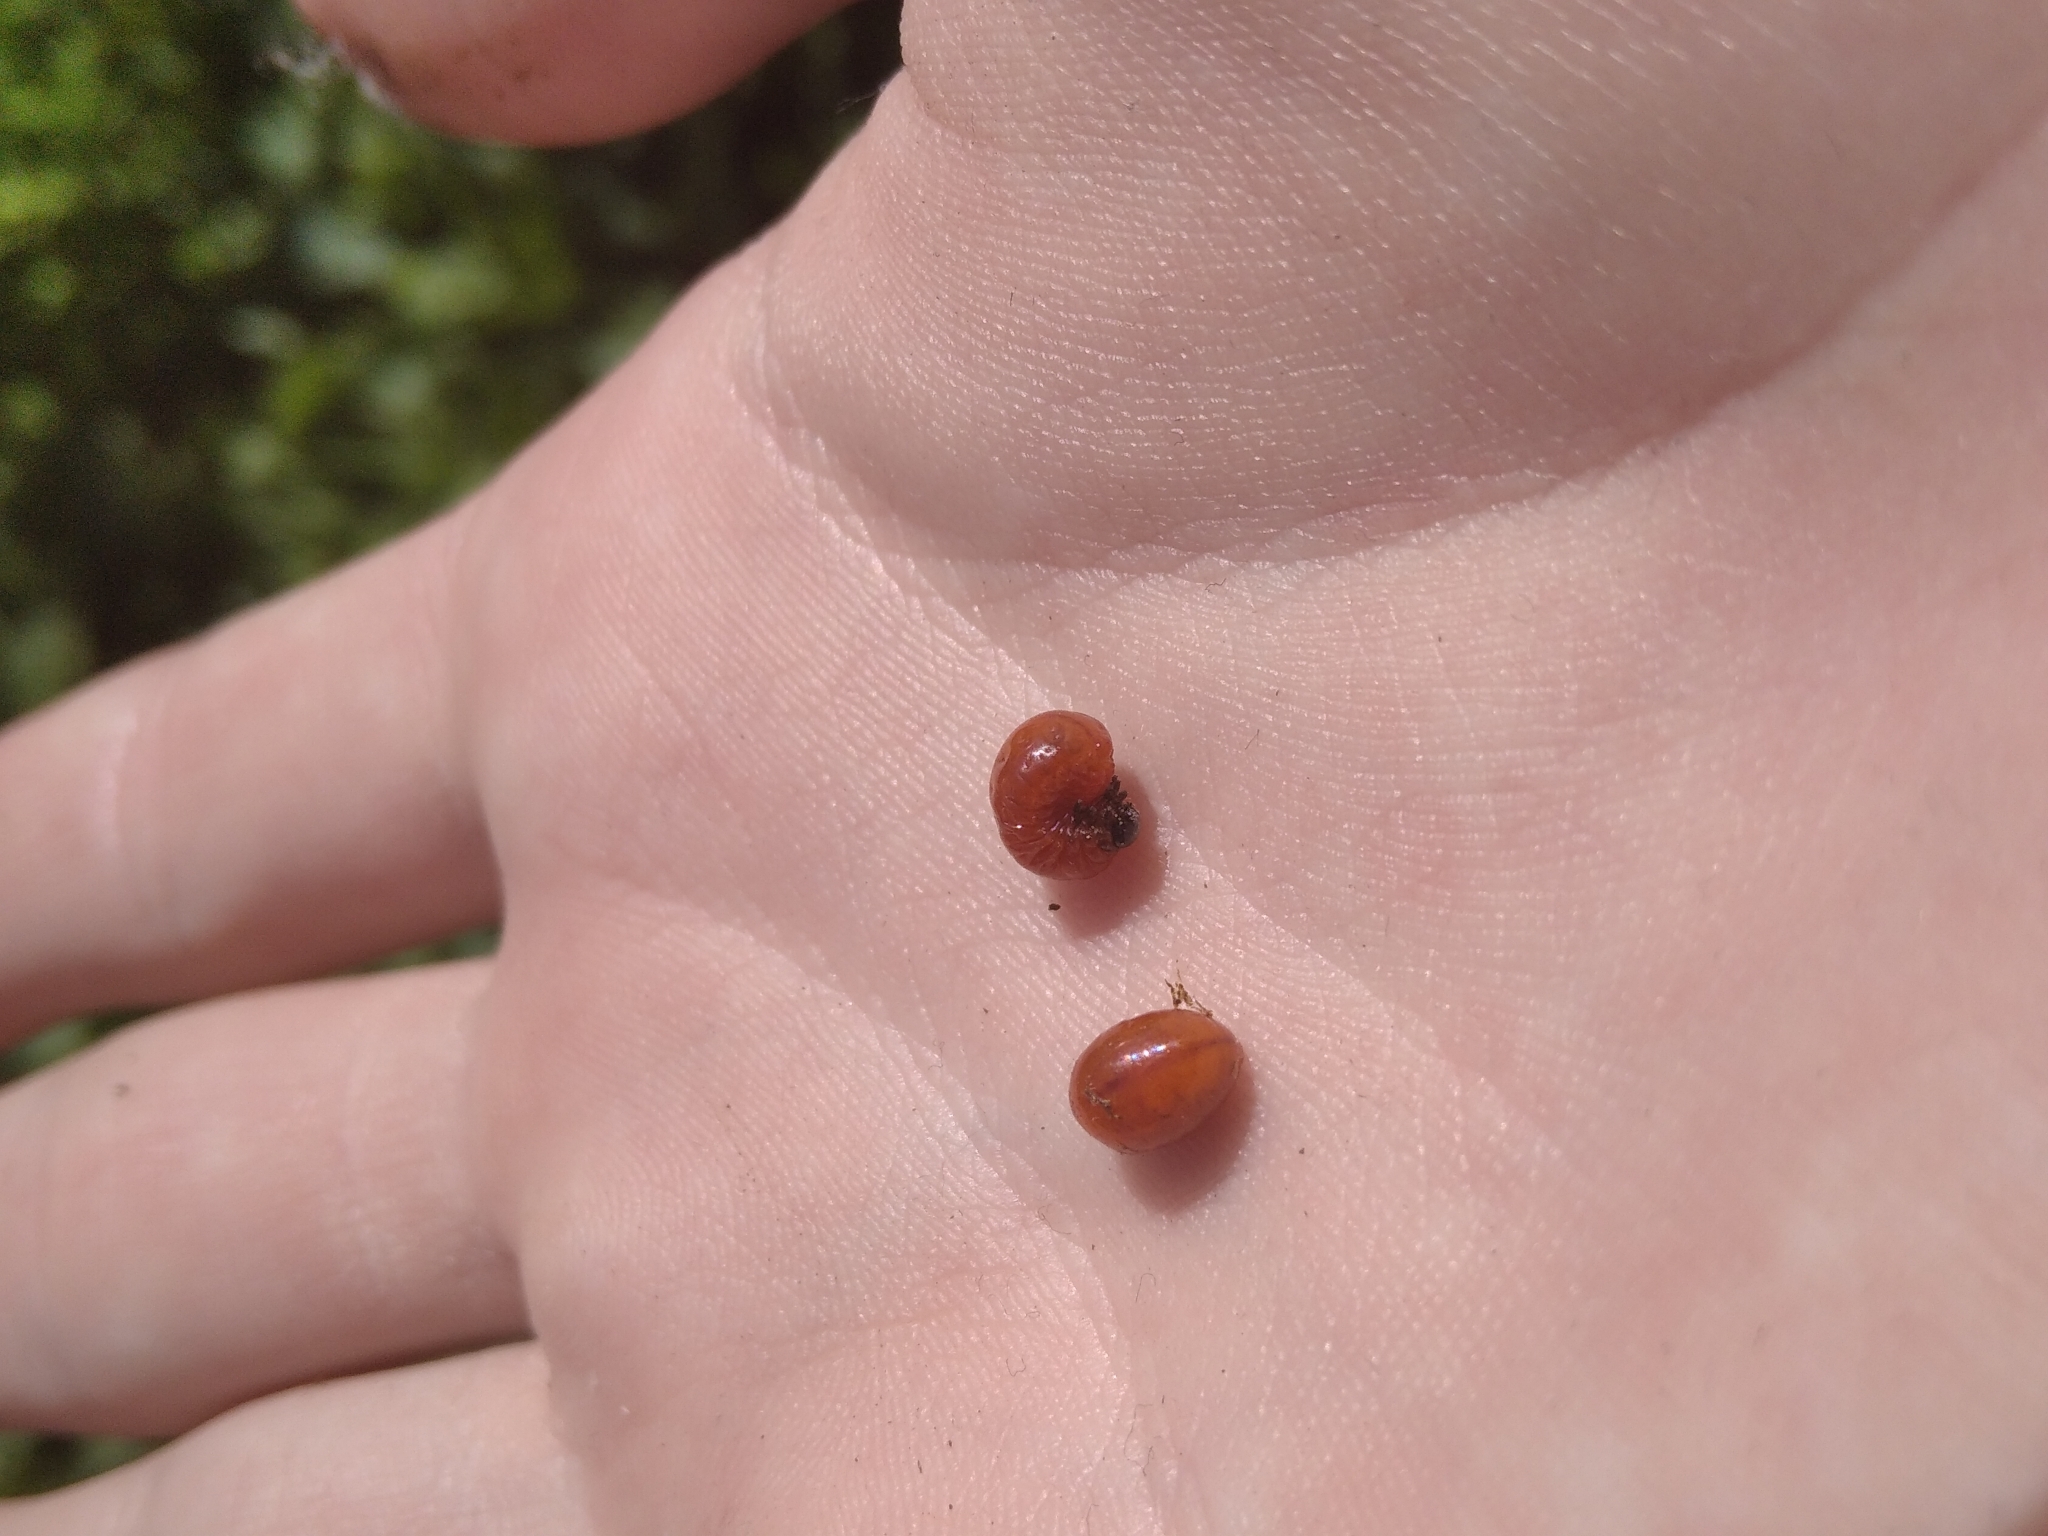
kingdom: Animalia
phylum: Arthropoda
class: Insecta
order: Coleoptera
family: Chrysomelidae
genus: Lilioceris
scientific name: Lilioceris lilii
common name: Lily beetle
